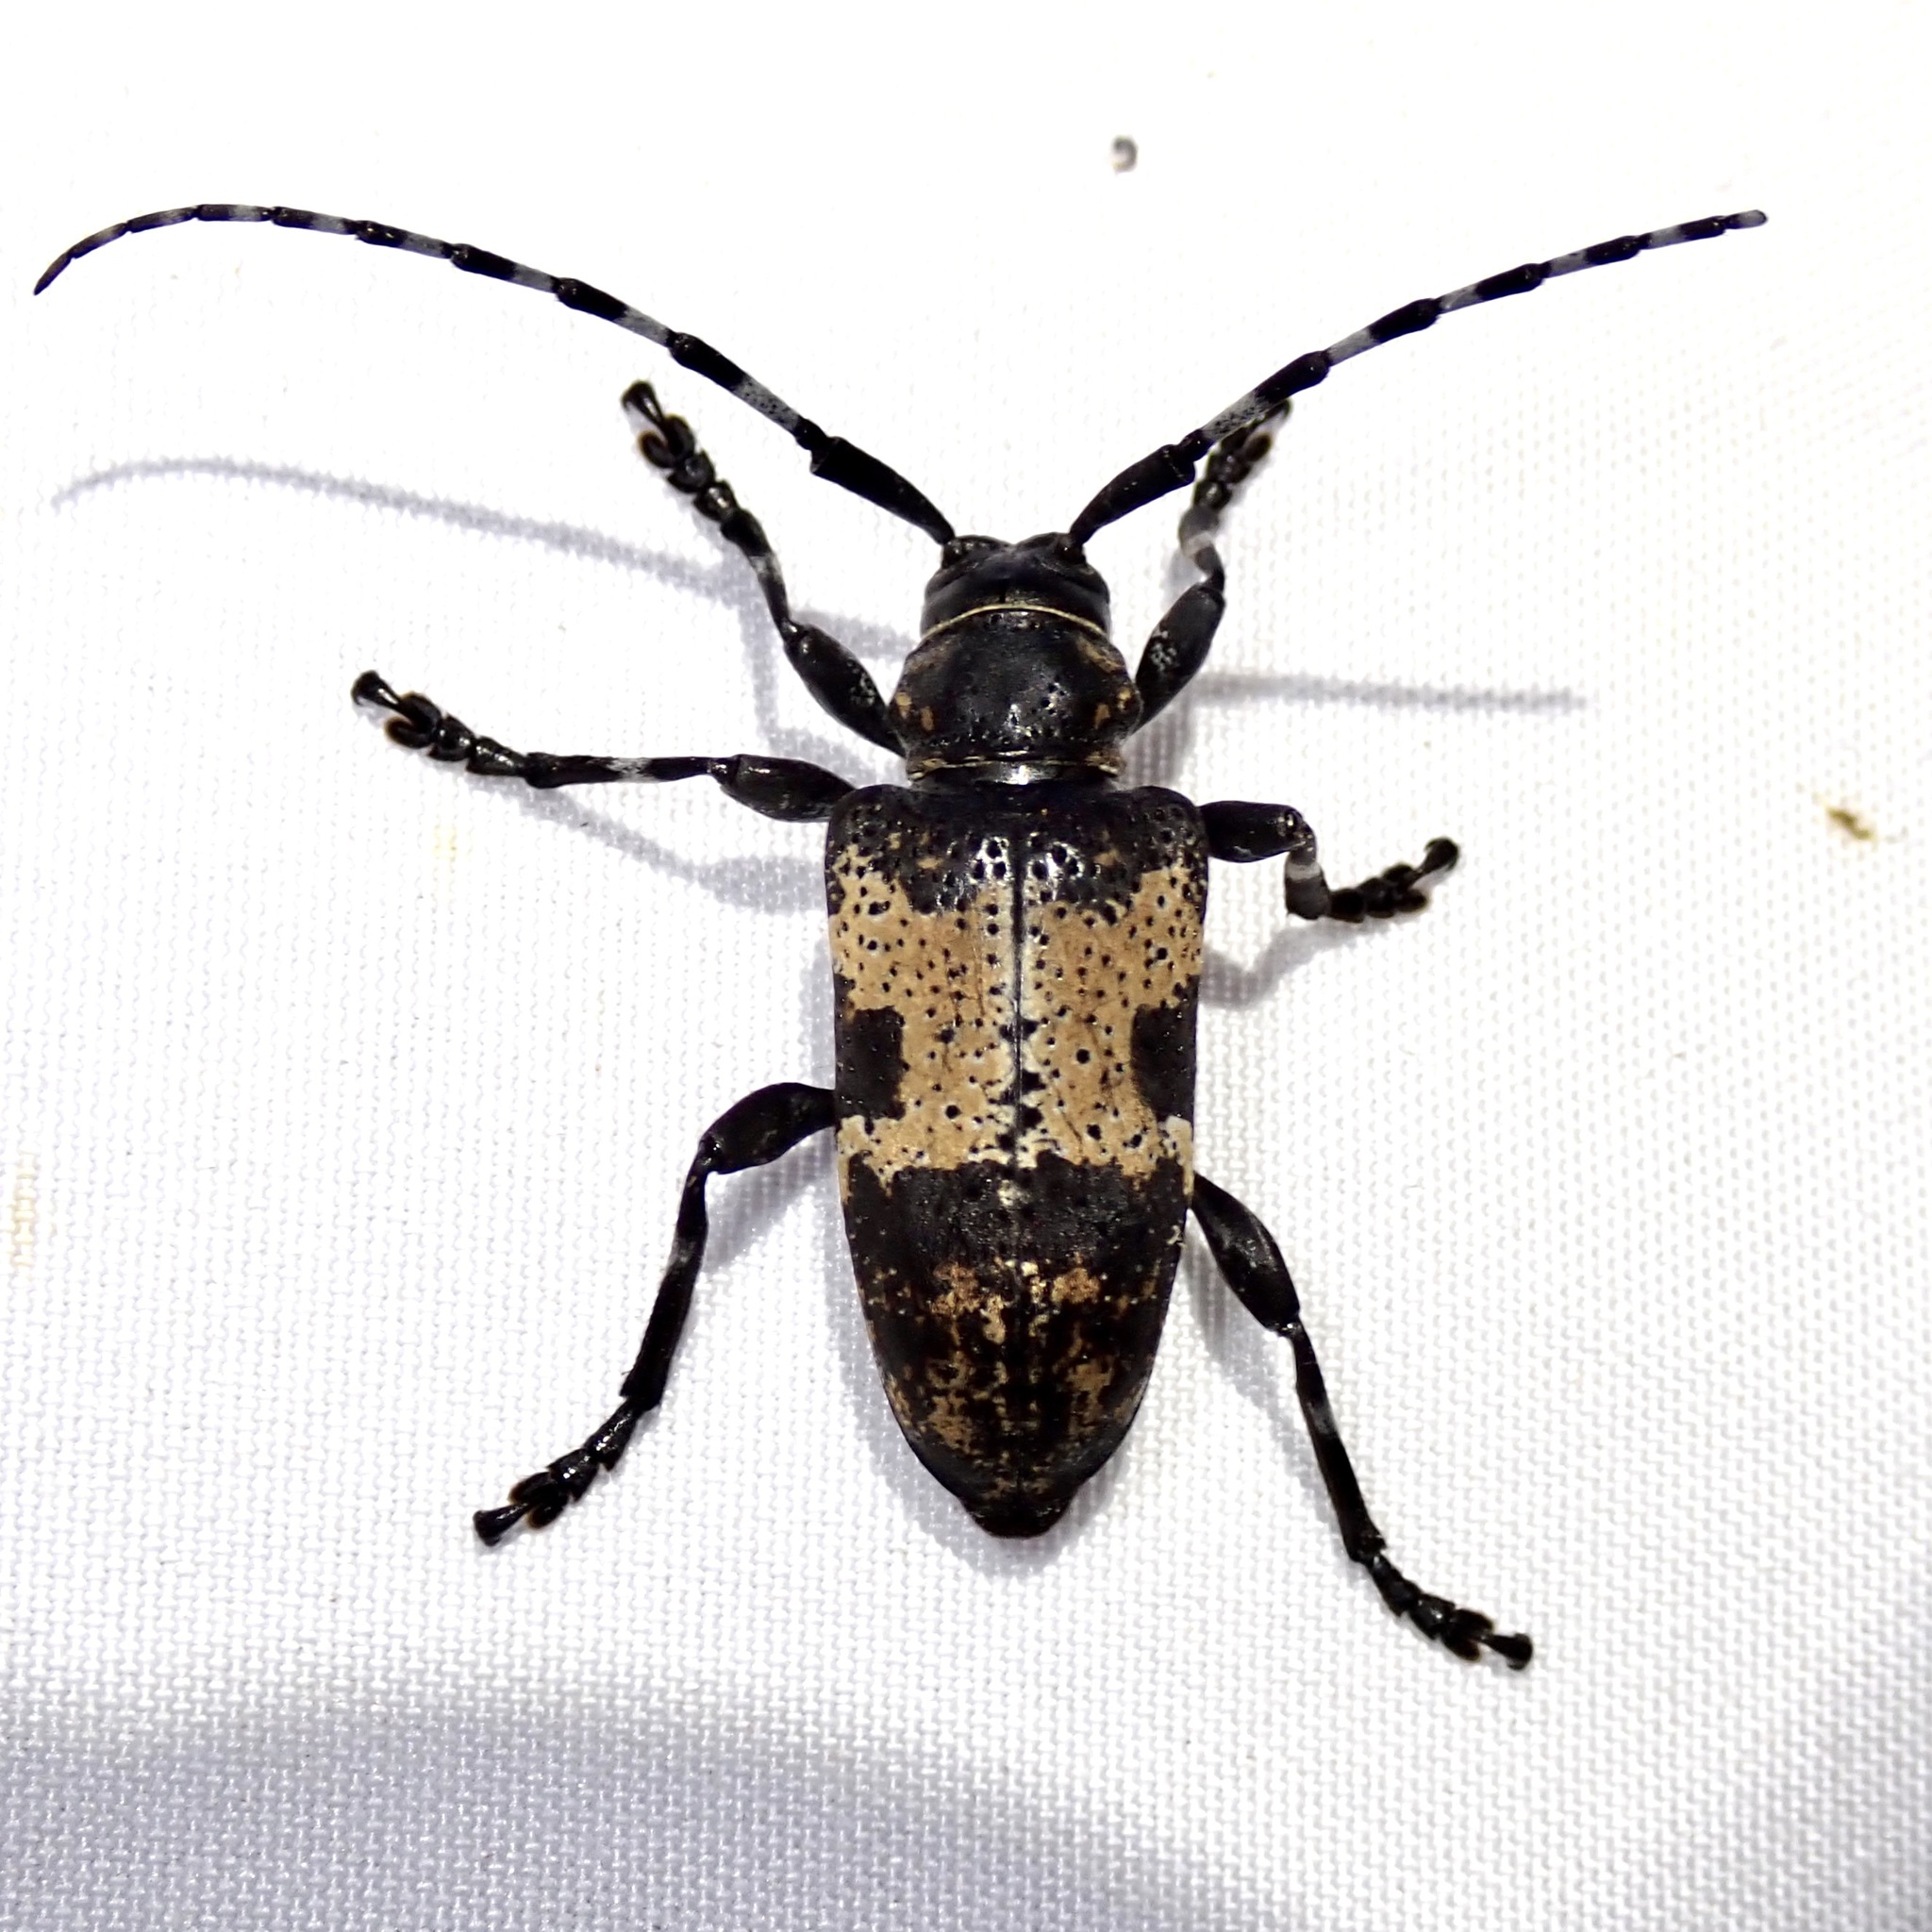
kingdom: Animalia
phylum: Arthropoda
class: Insecta
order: Coleoptera
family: Cerambycidae
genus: Coenopoeus
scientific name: Coenopoeus palmeri
